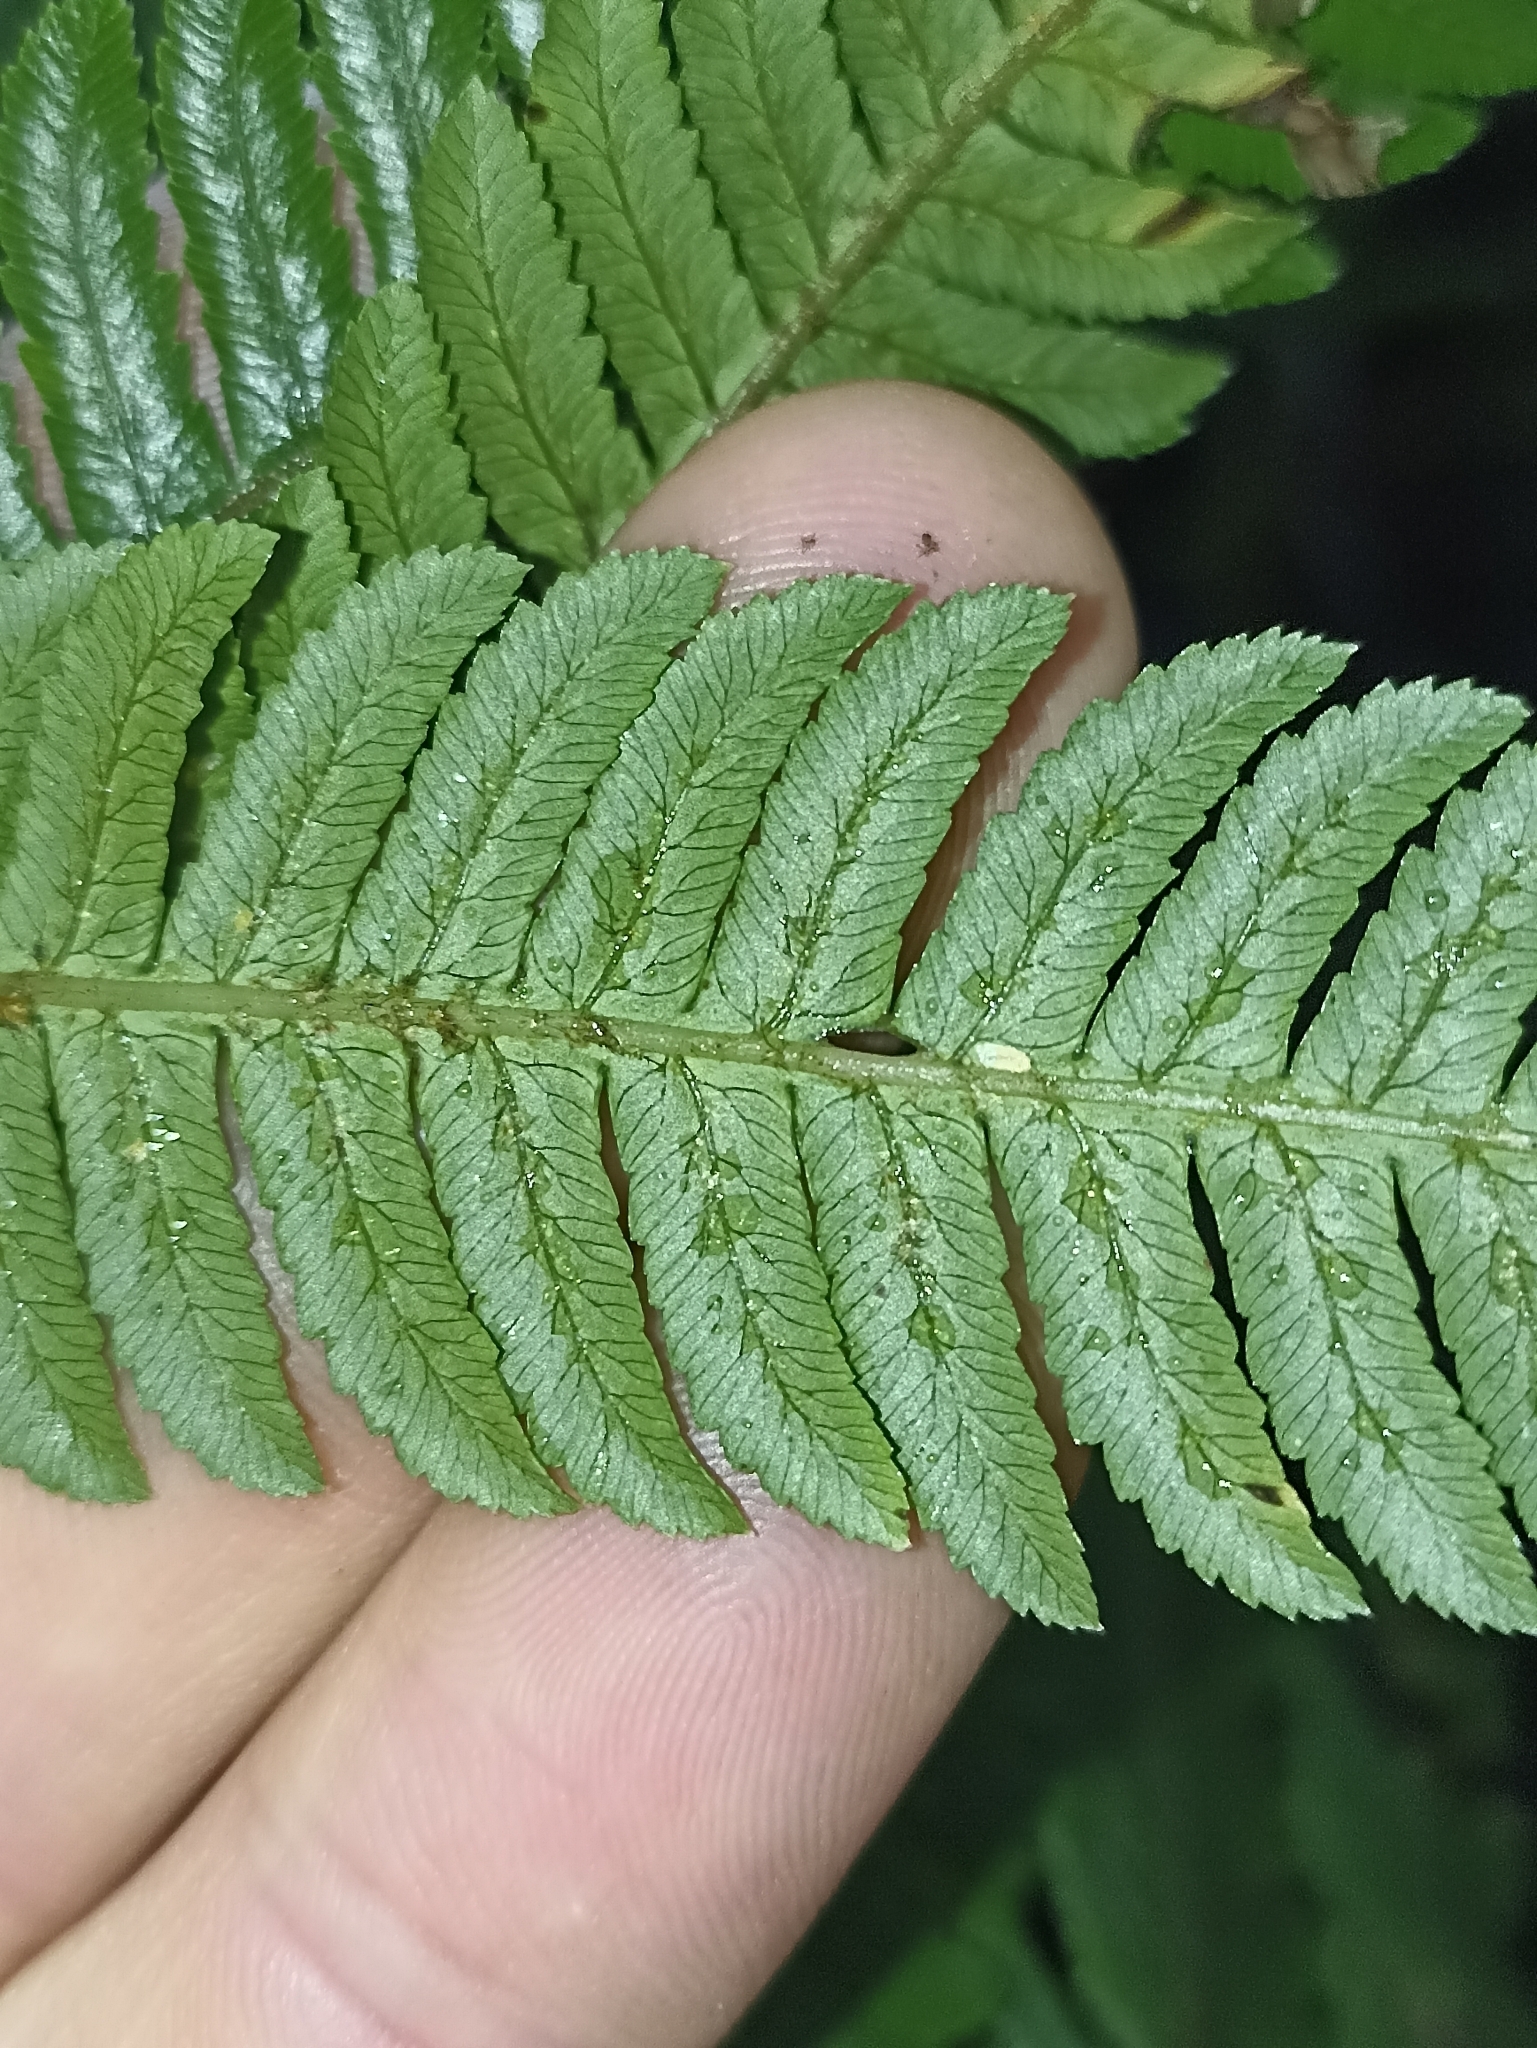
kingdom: Plantae
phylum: Tracheophyta
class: Polypodiopsida
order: Cyatheales
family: Cyatheaceae
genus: Sphaeropteris
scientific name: Sphaeropteris medullaris
